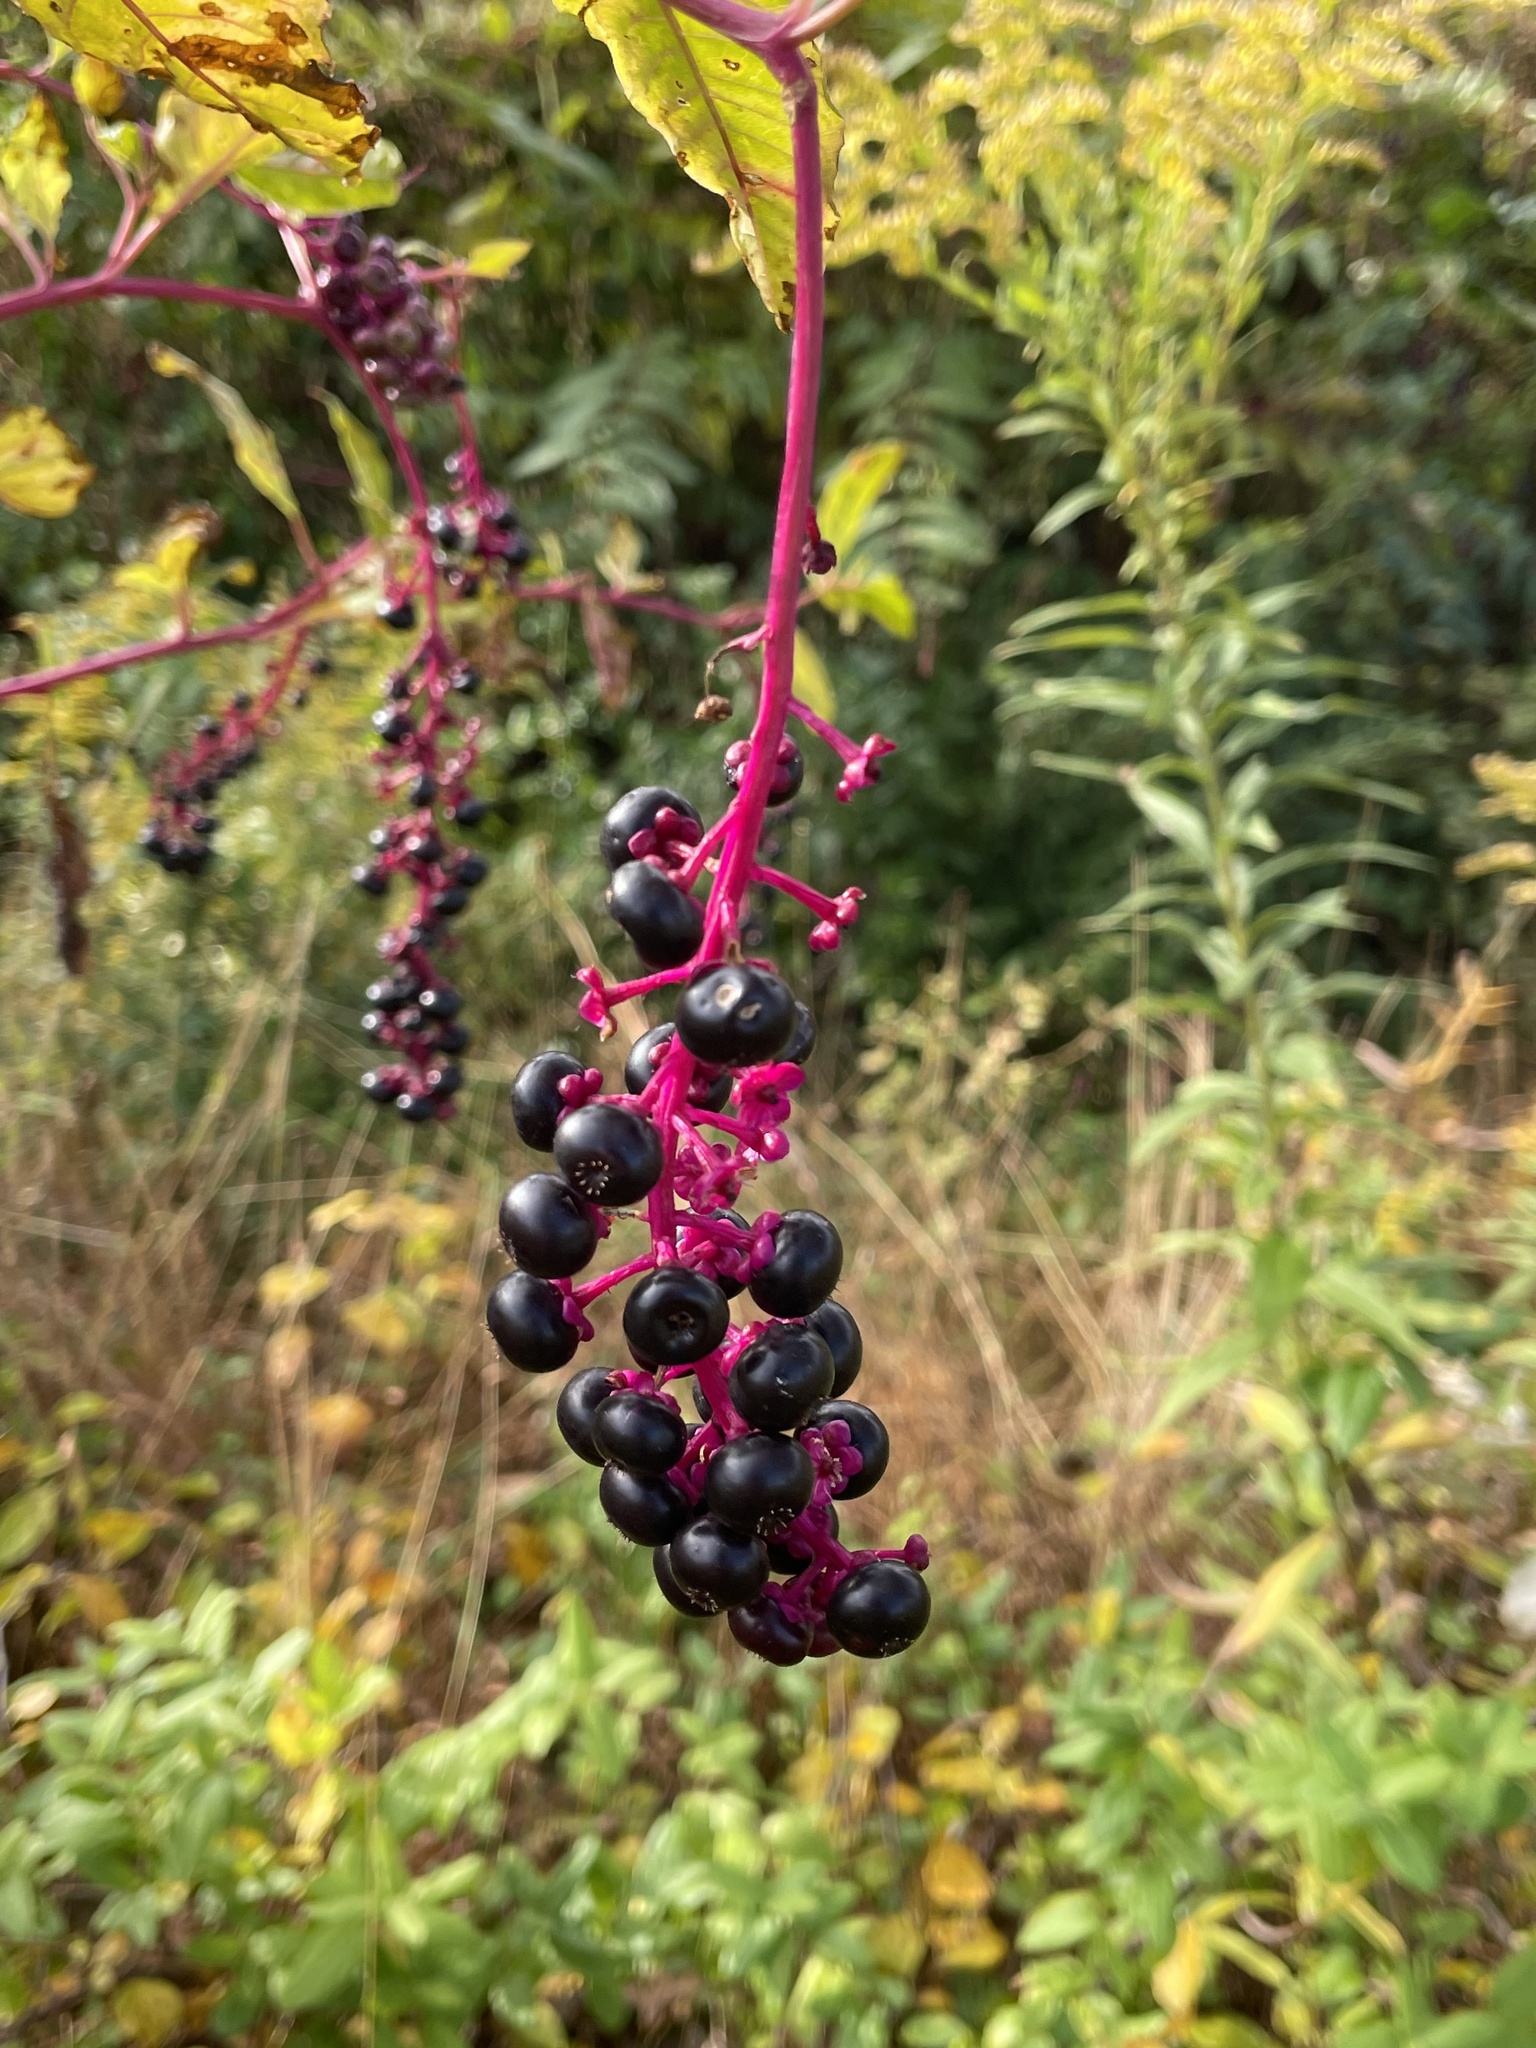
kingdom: Plantae
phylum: Tracheophyta
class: Magnoliopsida
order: Caryophyllales
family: Phytolaccaceae
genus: Phytolacca
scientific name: Phytolacca americana
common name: American pokeweed
